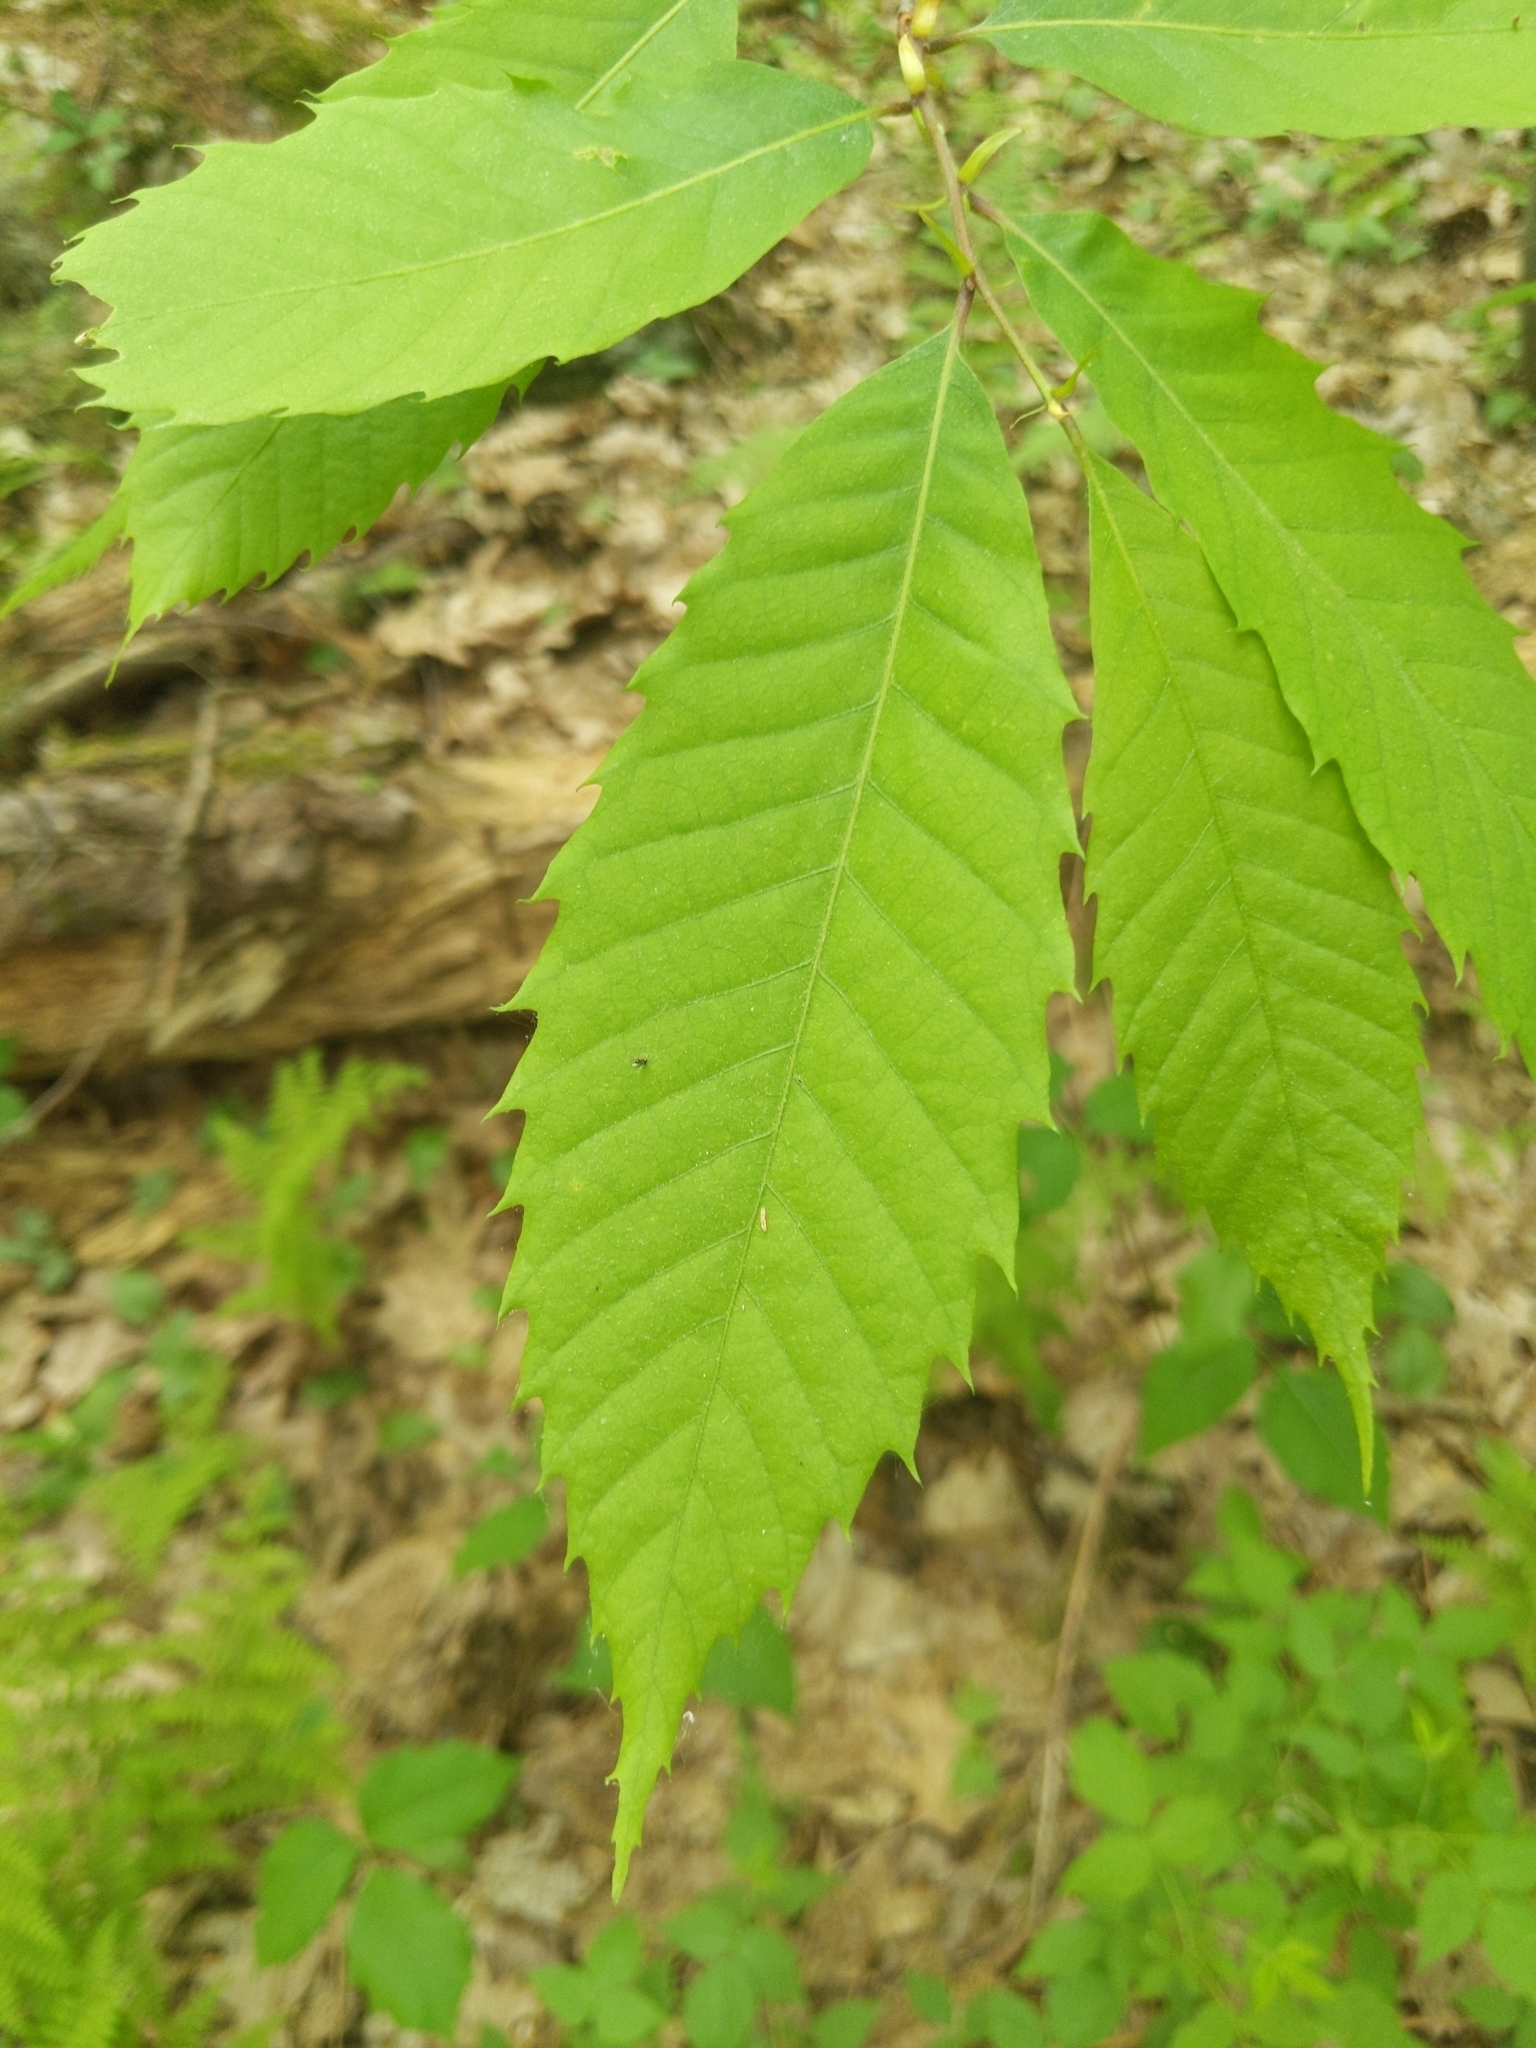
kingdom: Plantae
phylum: Tracheophyta
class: Magnoliopsida
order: Fagales
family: Fagaceae
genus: Castanea
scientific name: Castanea dentata
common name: American chestnut
